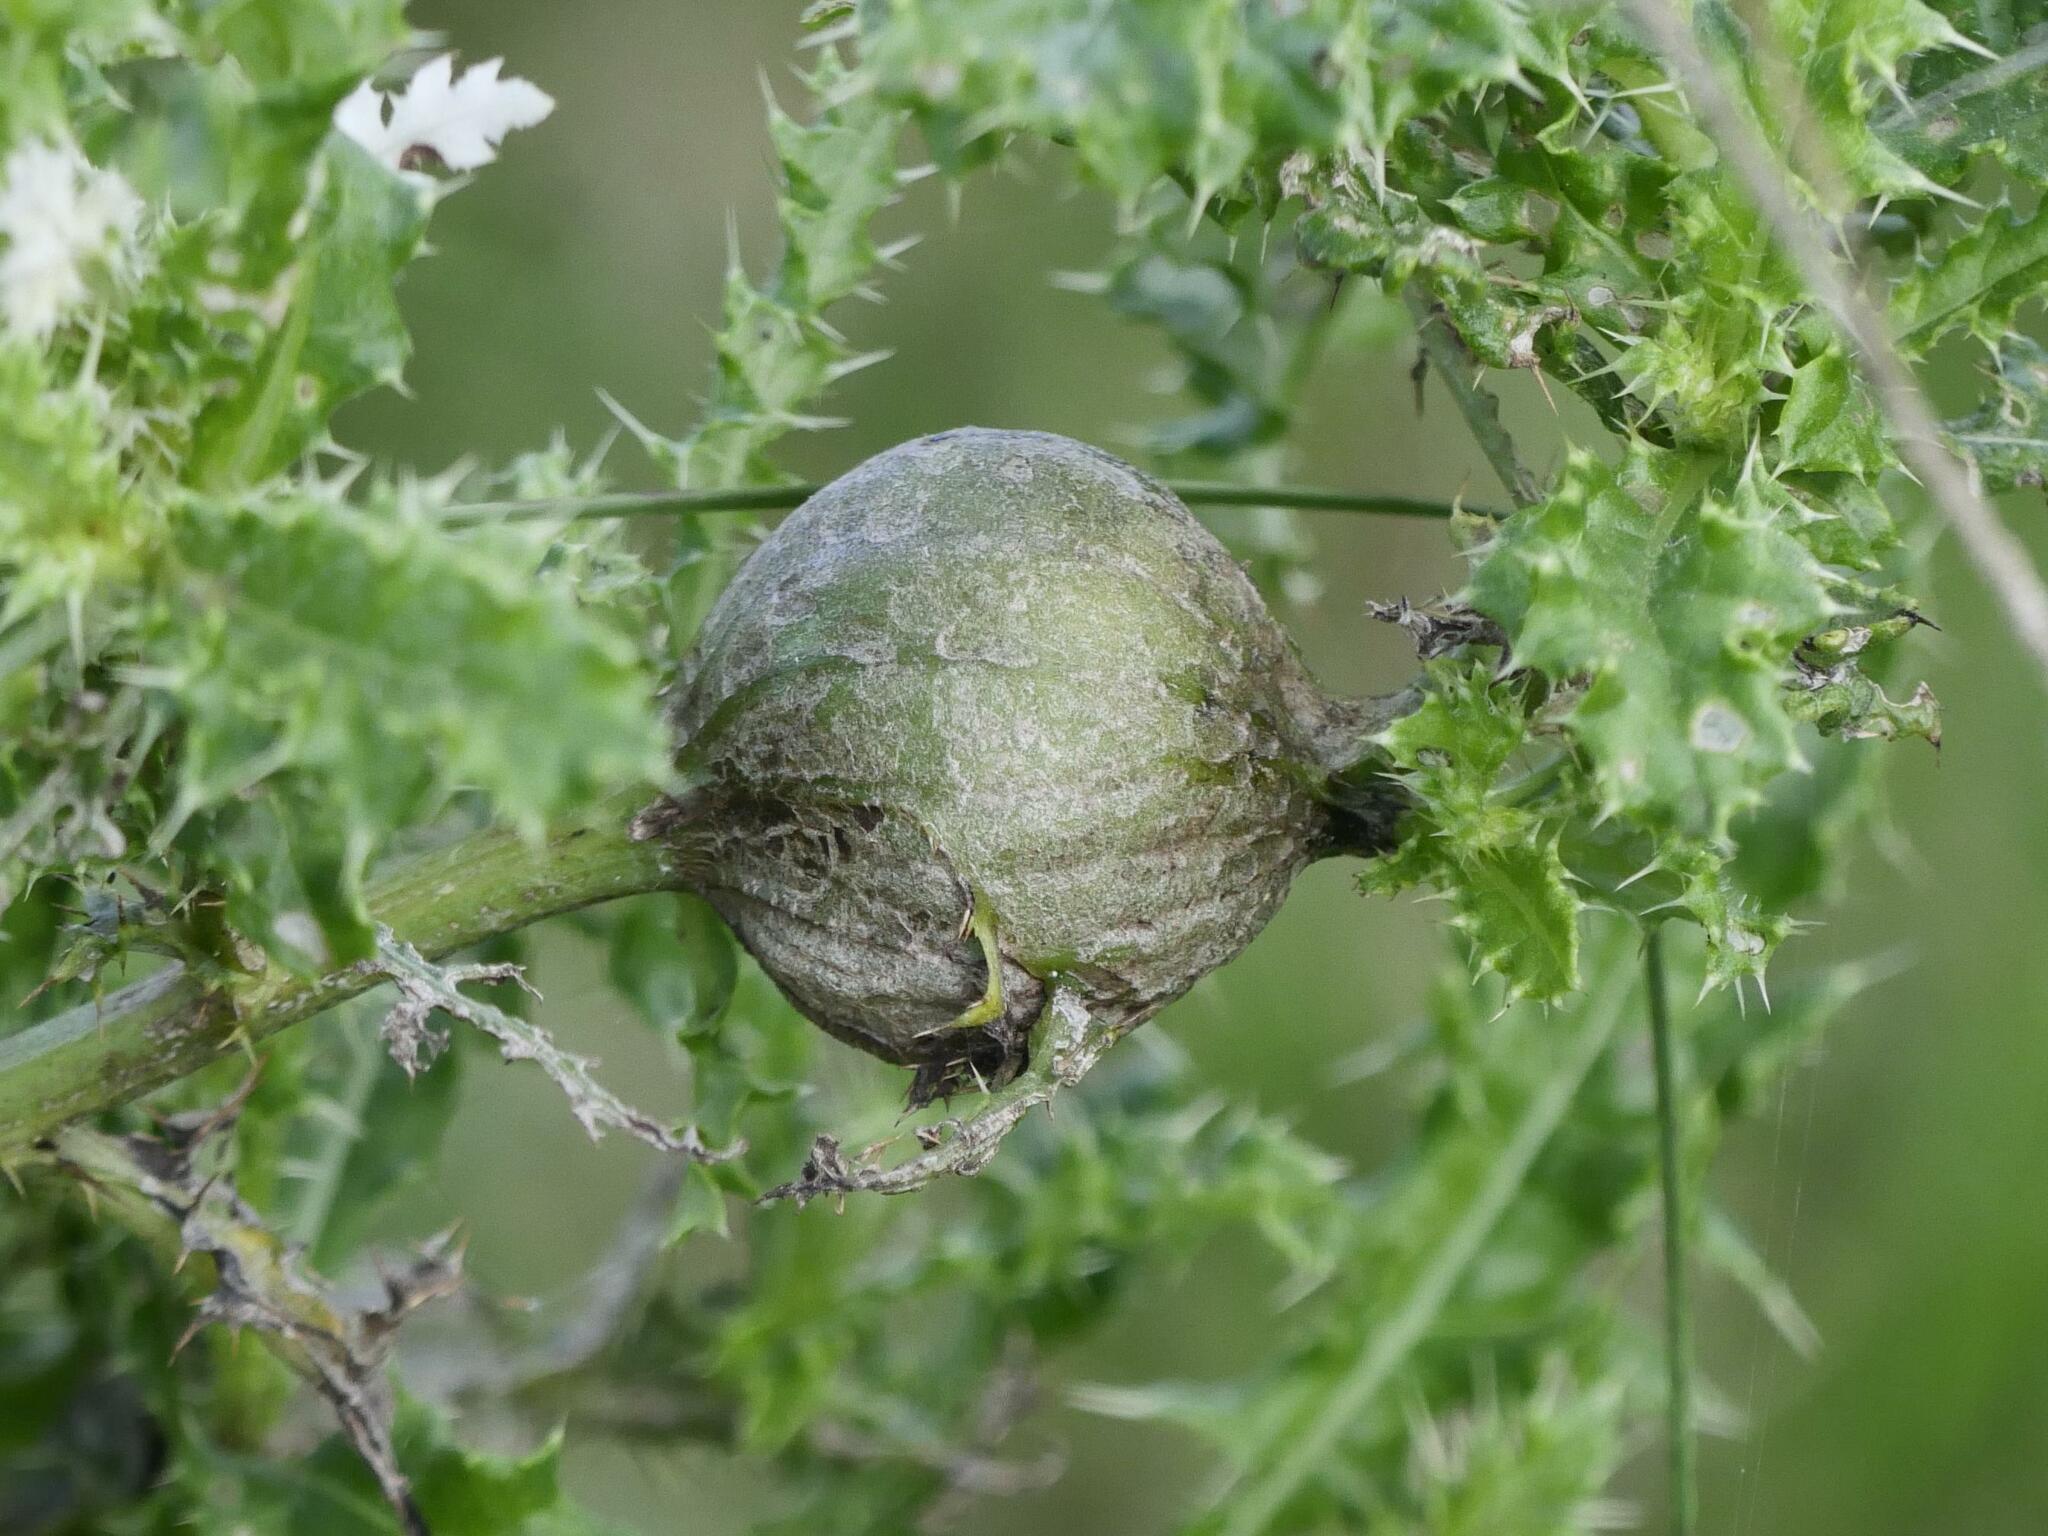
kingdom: Animalia
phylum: Arthropoda
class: Insecta
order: Diptera
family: Tephritidae
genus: Urophora
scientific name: Urophora cardui
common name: Fruit fly
